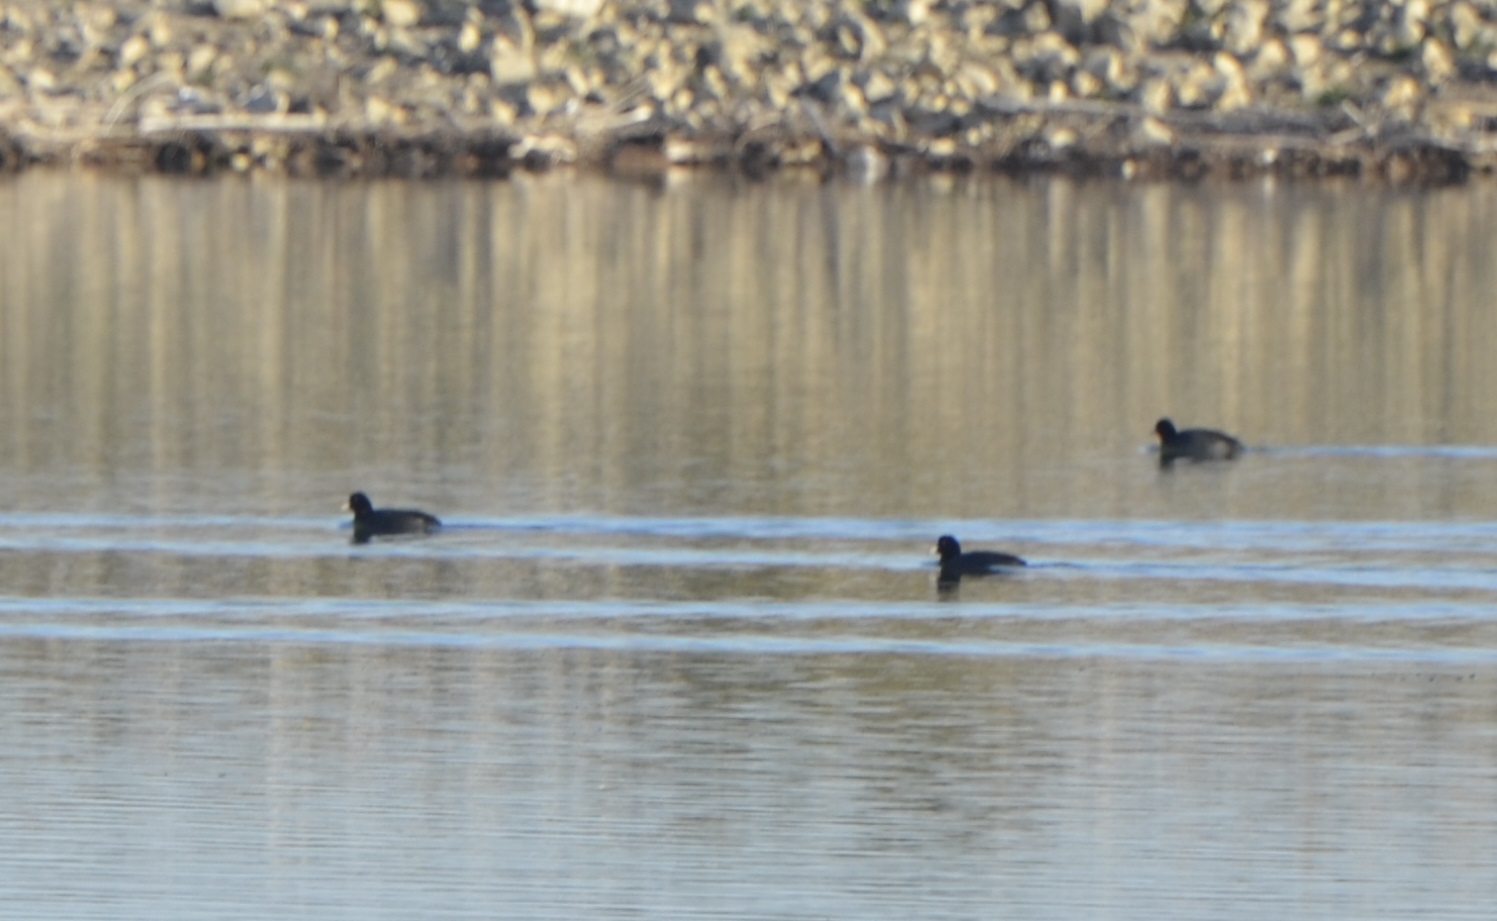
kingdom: Animalia
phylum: Chordata
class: Aves
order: Gruiformes
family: Rallidae
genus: Fulica
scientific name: Fulica atra
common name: Eurasian coot
